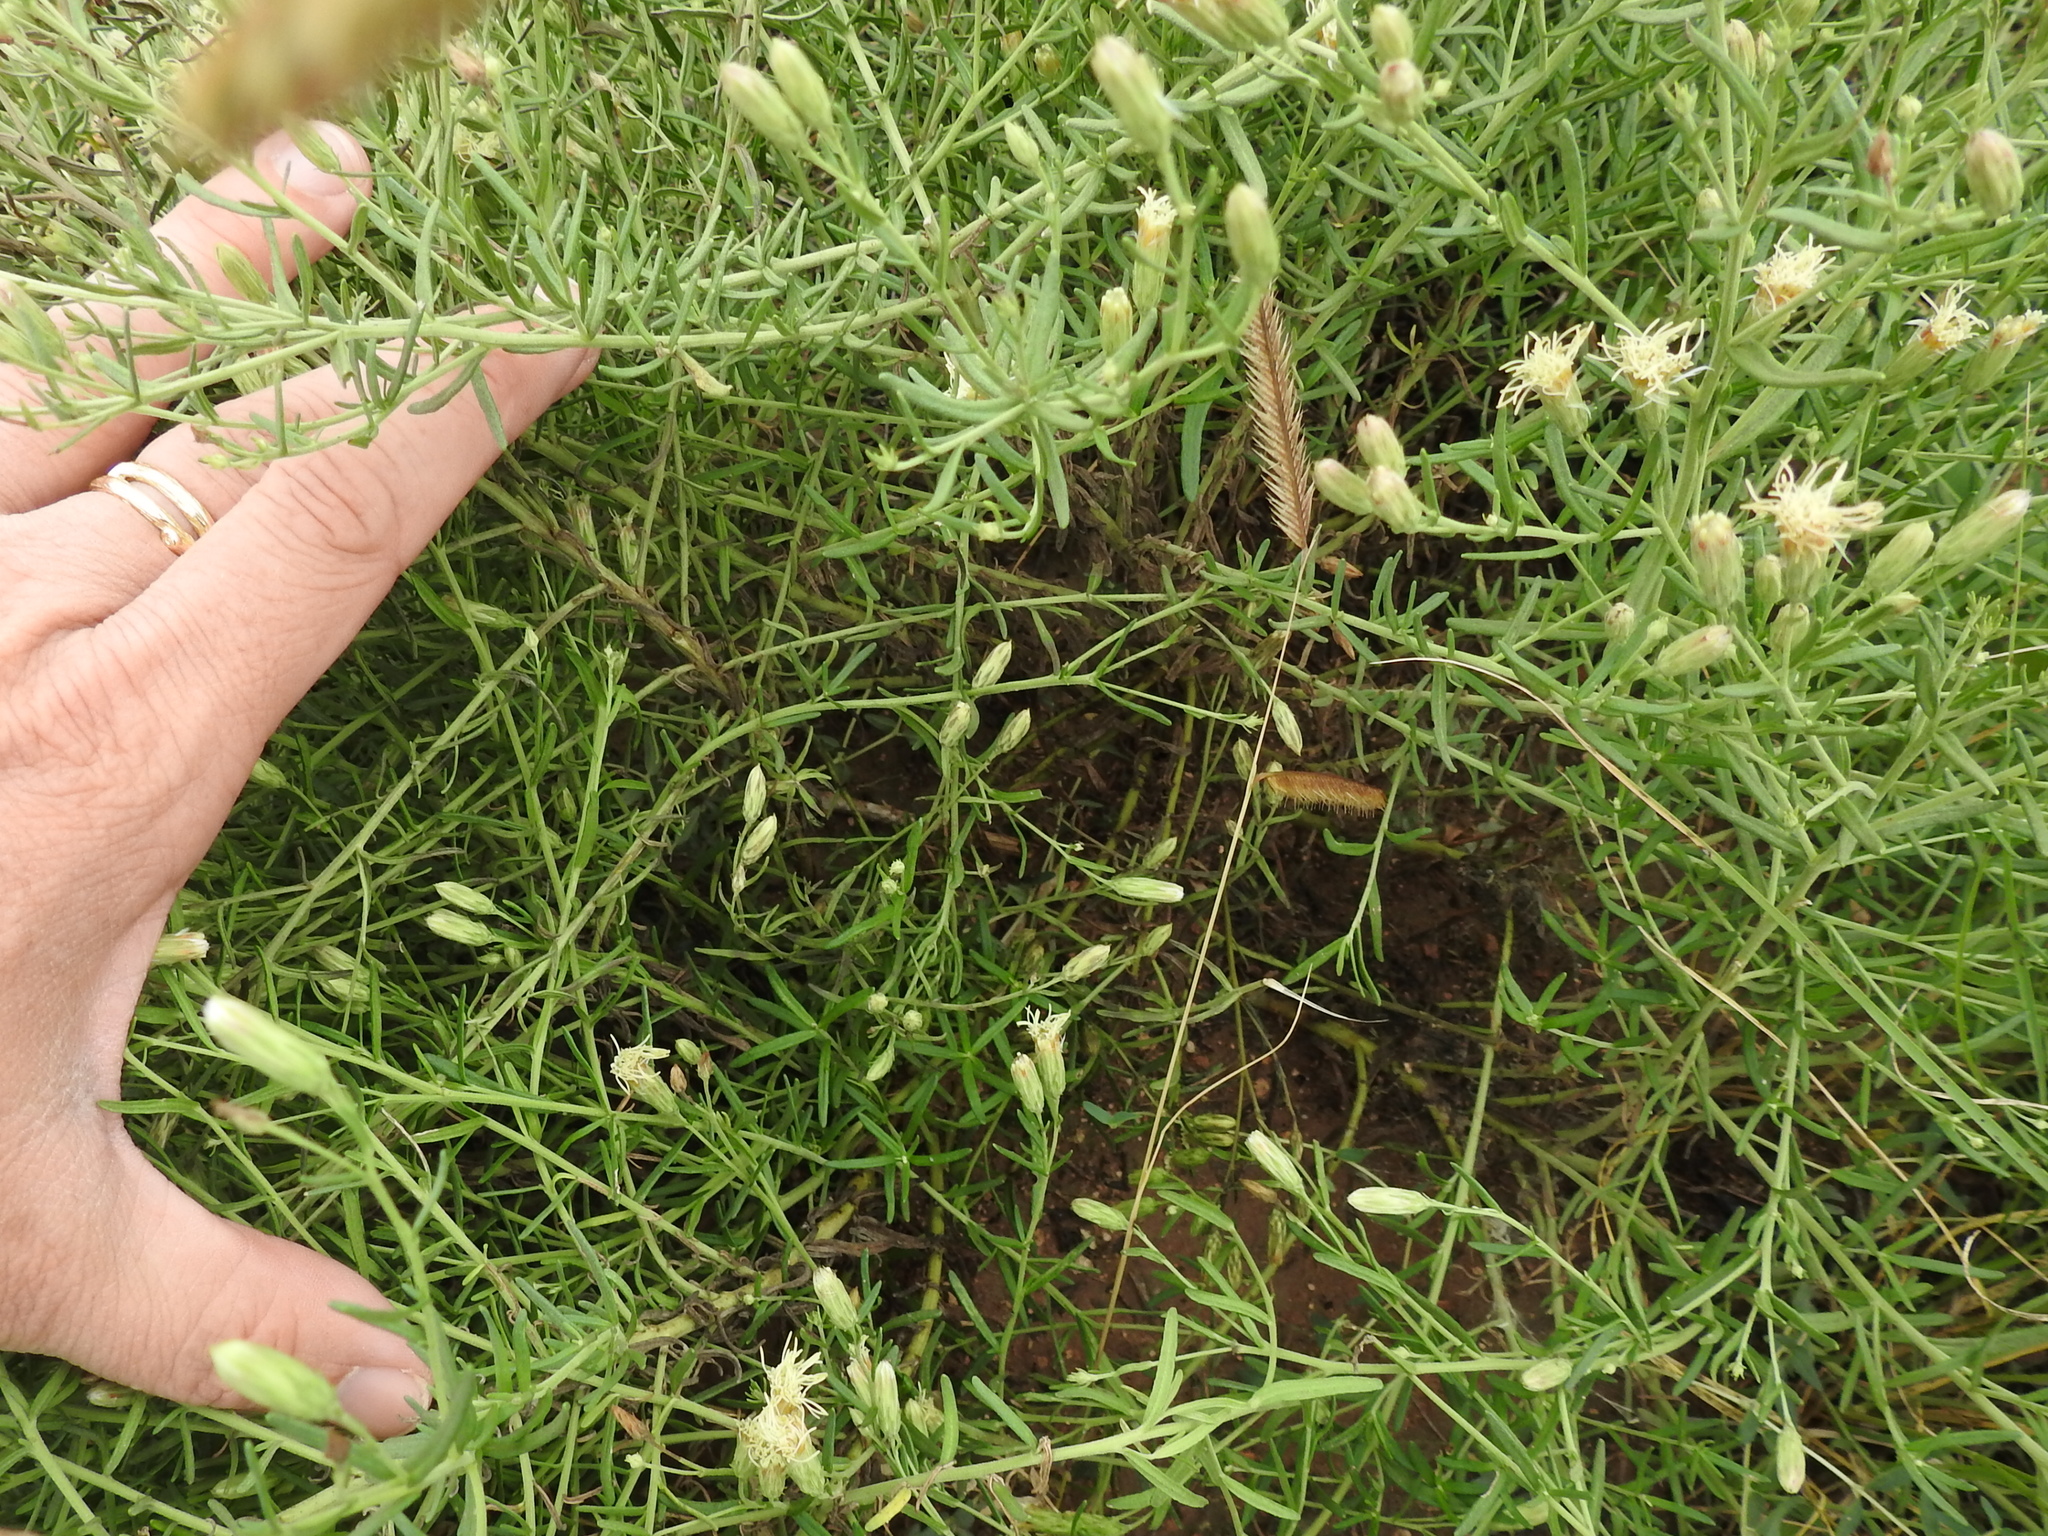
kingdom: Plantae
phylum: Tracheophyta
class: Magnoliopsida
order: Asterales
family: Asteraceae
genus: Brickellia
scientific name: Brickellia eupatorioides
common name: False boneset
